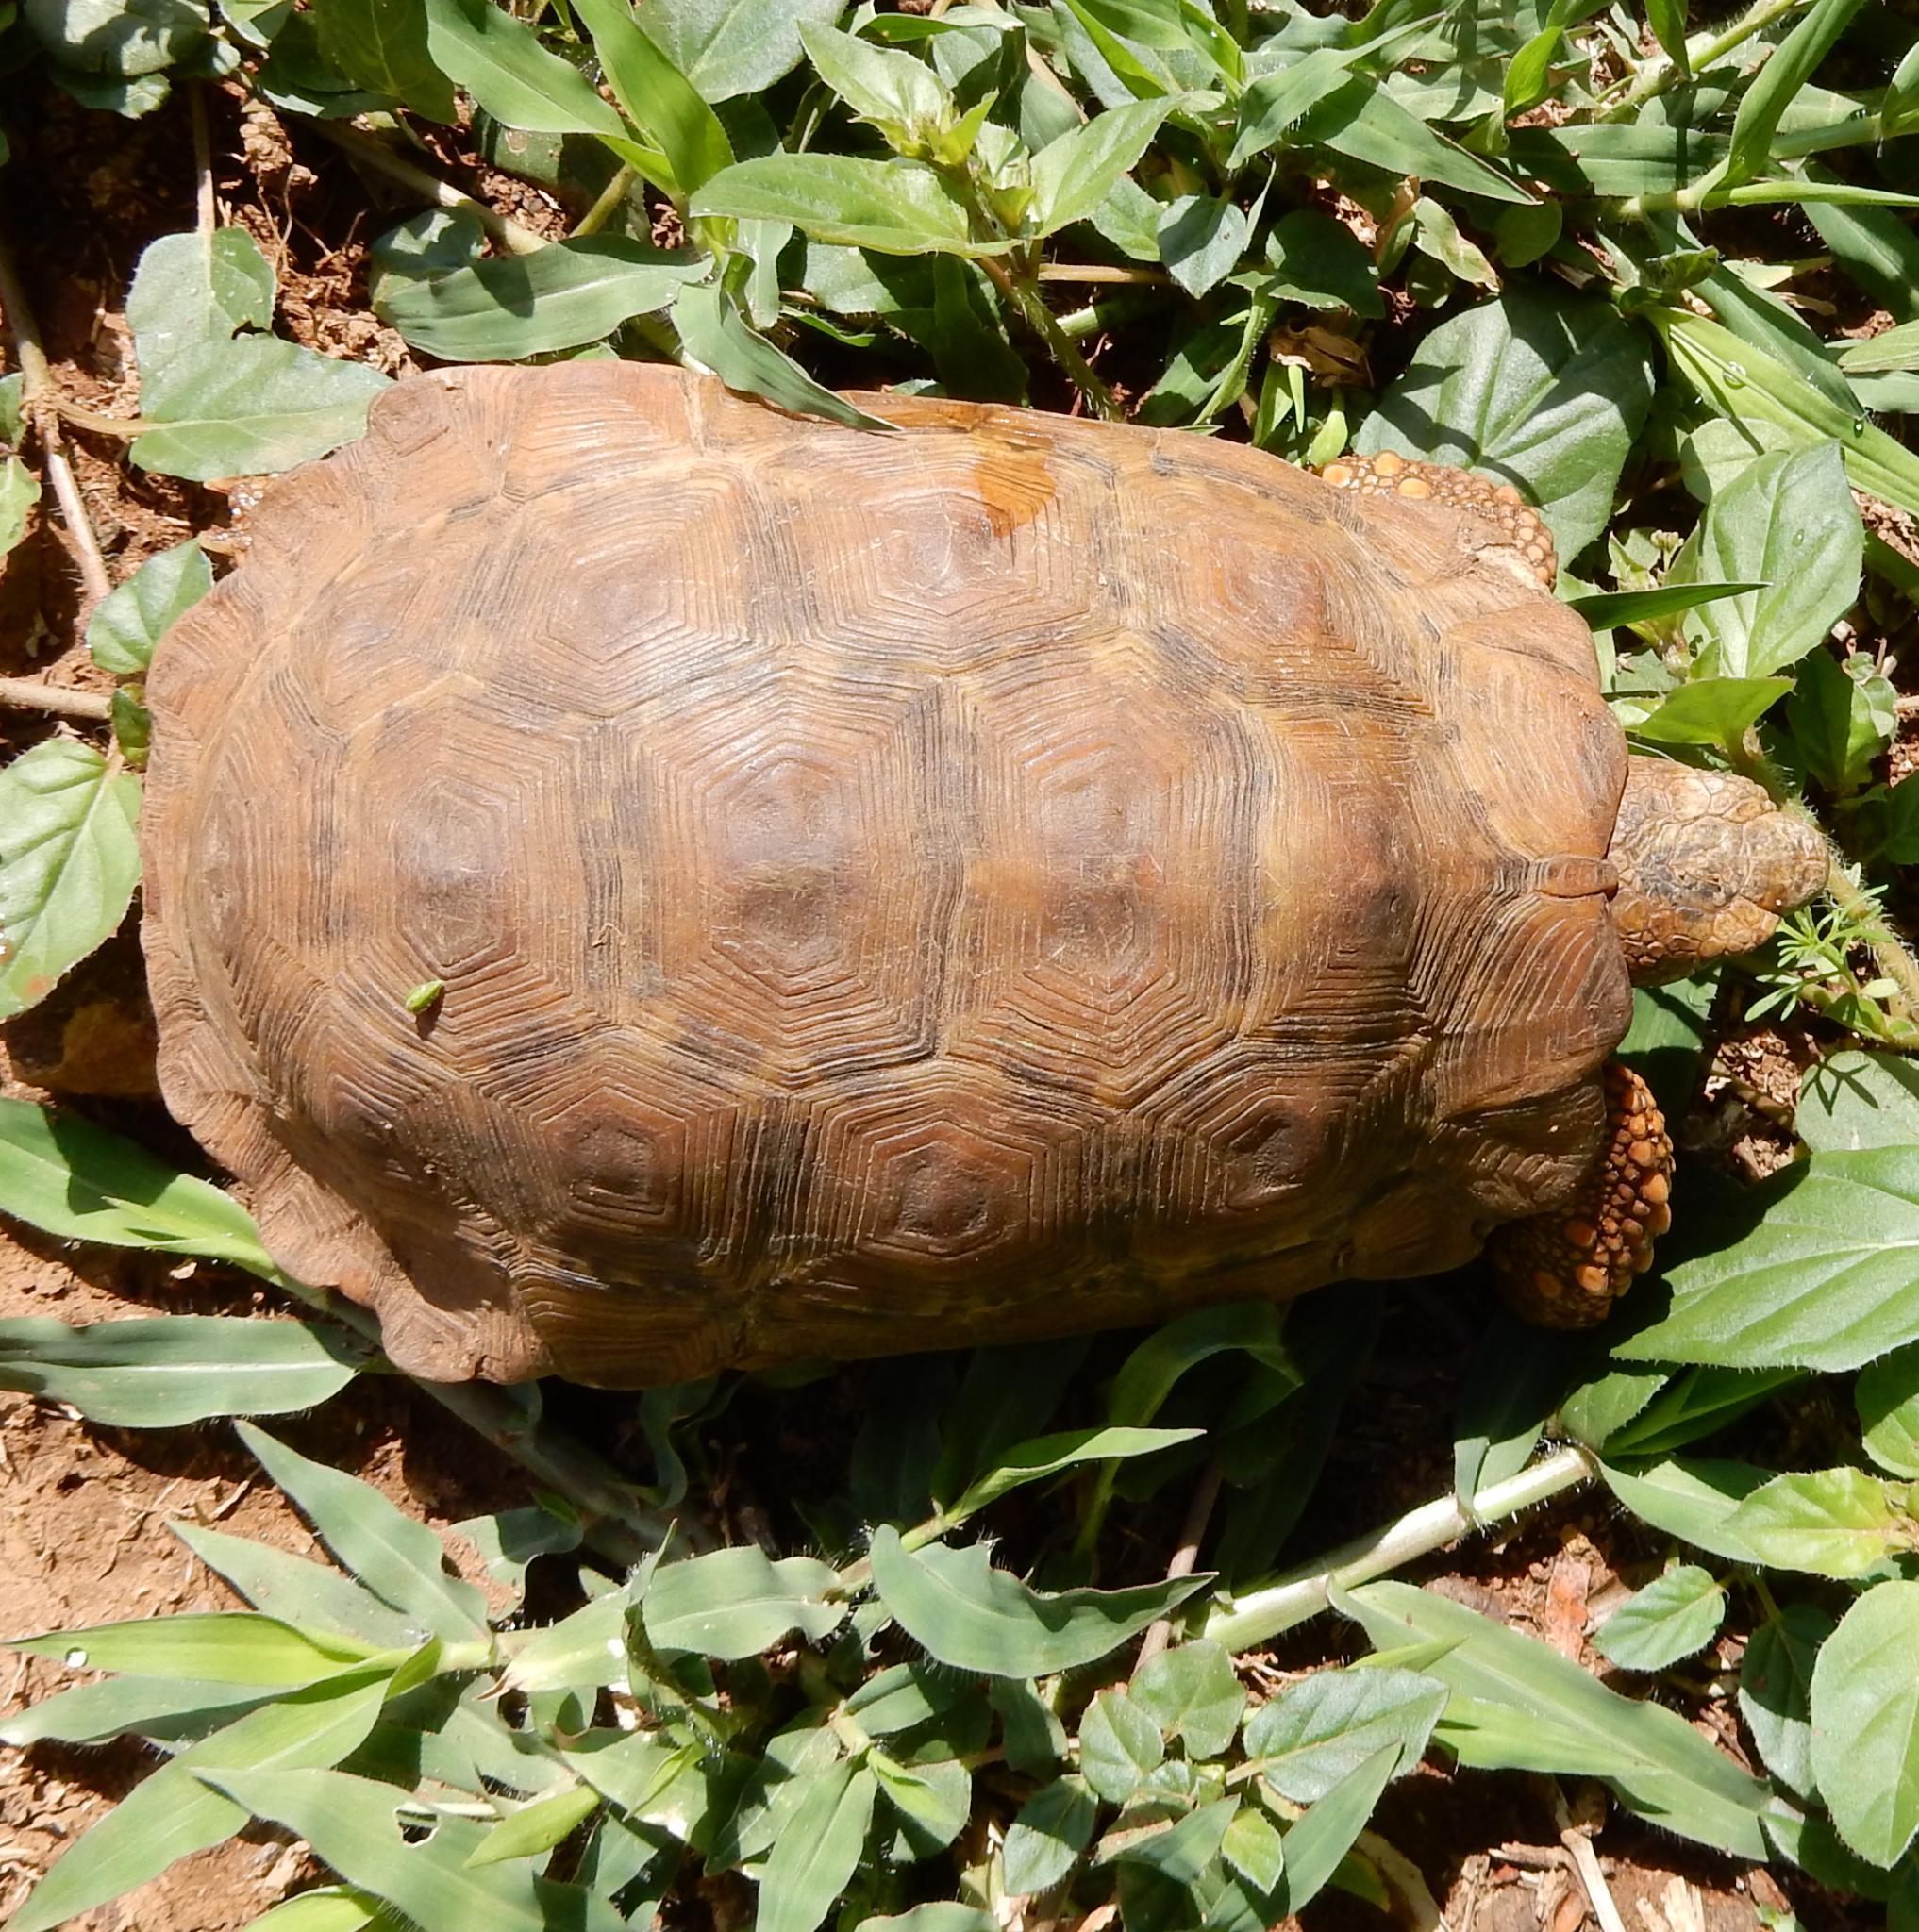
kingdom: Animalia
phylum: Chordata
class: Testudines
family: Testudinidae
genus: Kinixys
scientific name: Kinixys lobatsiana
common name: Lobatse hinge-back tortoise
